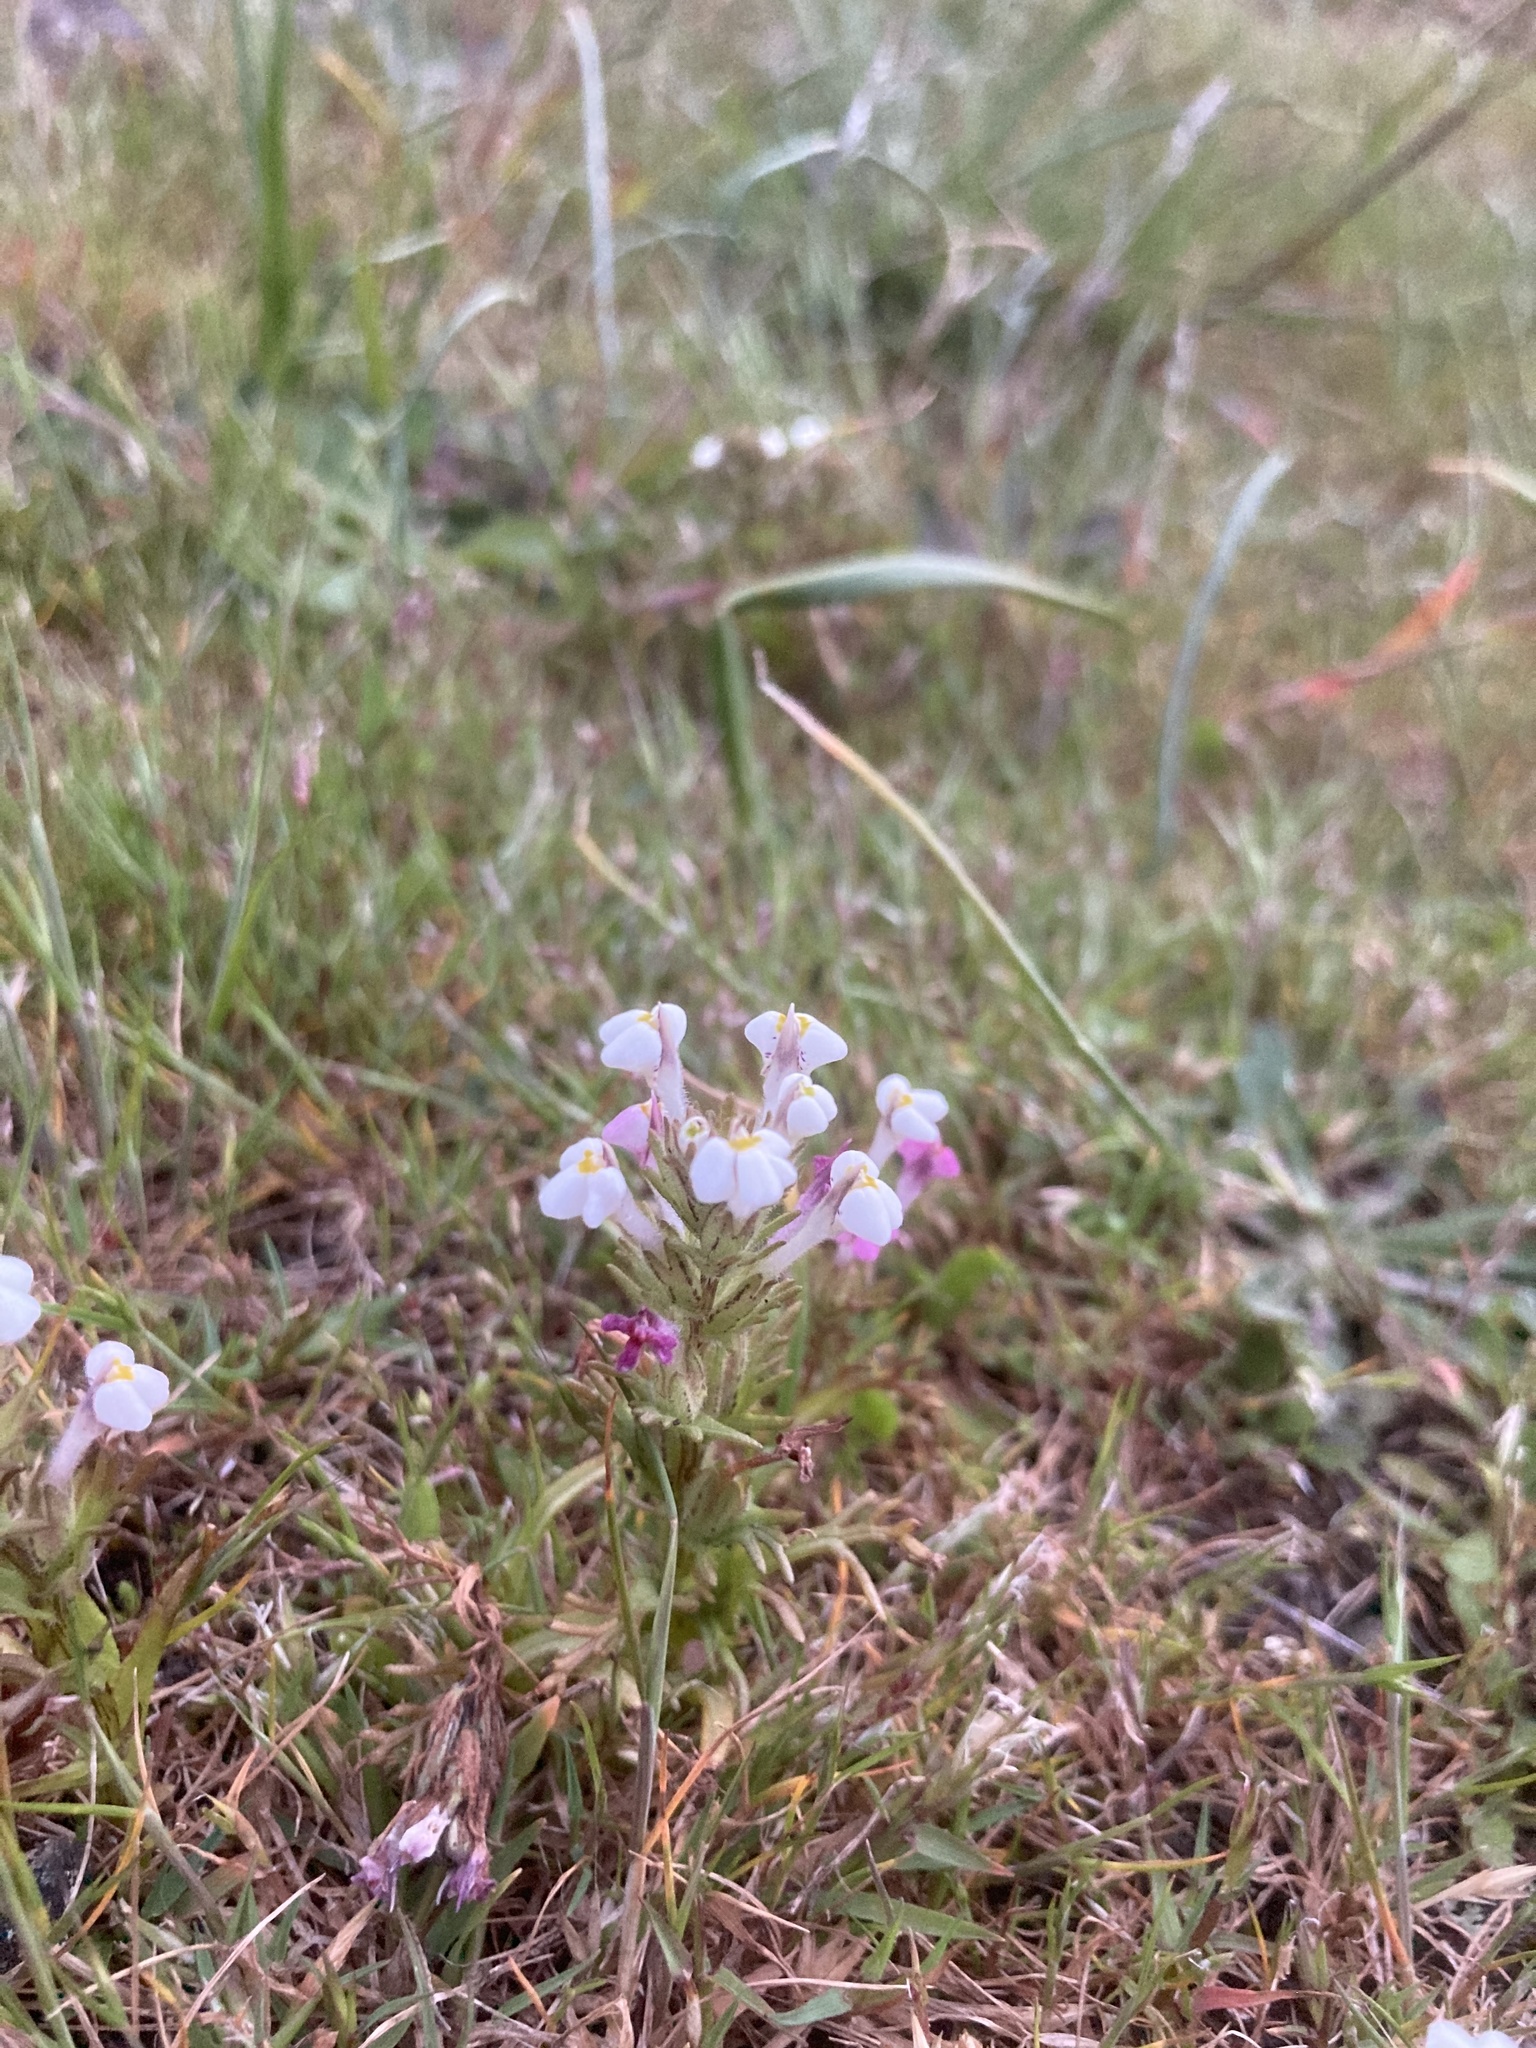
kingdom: Plantae
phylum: Tracheophyta
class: Magnoliopsida
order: Lamiales
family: Orobanchaceae
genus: Triphysaria
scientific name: Triphysaria versicolor
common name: Bearded false owl-clover
